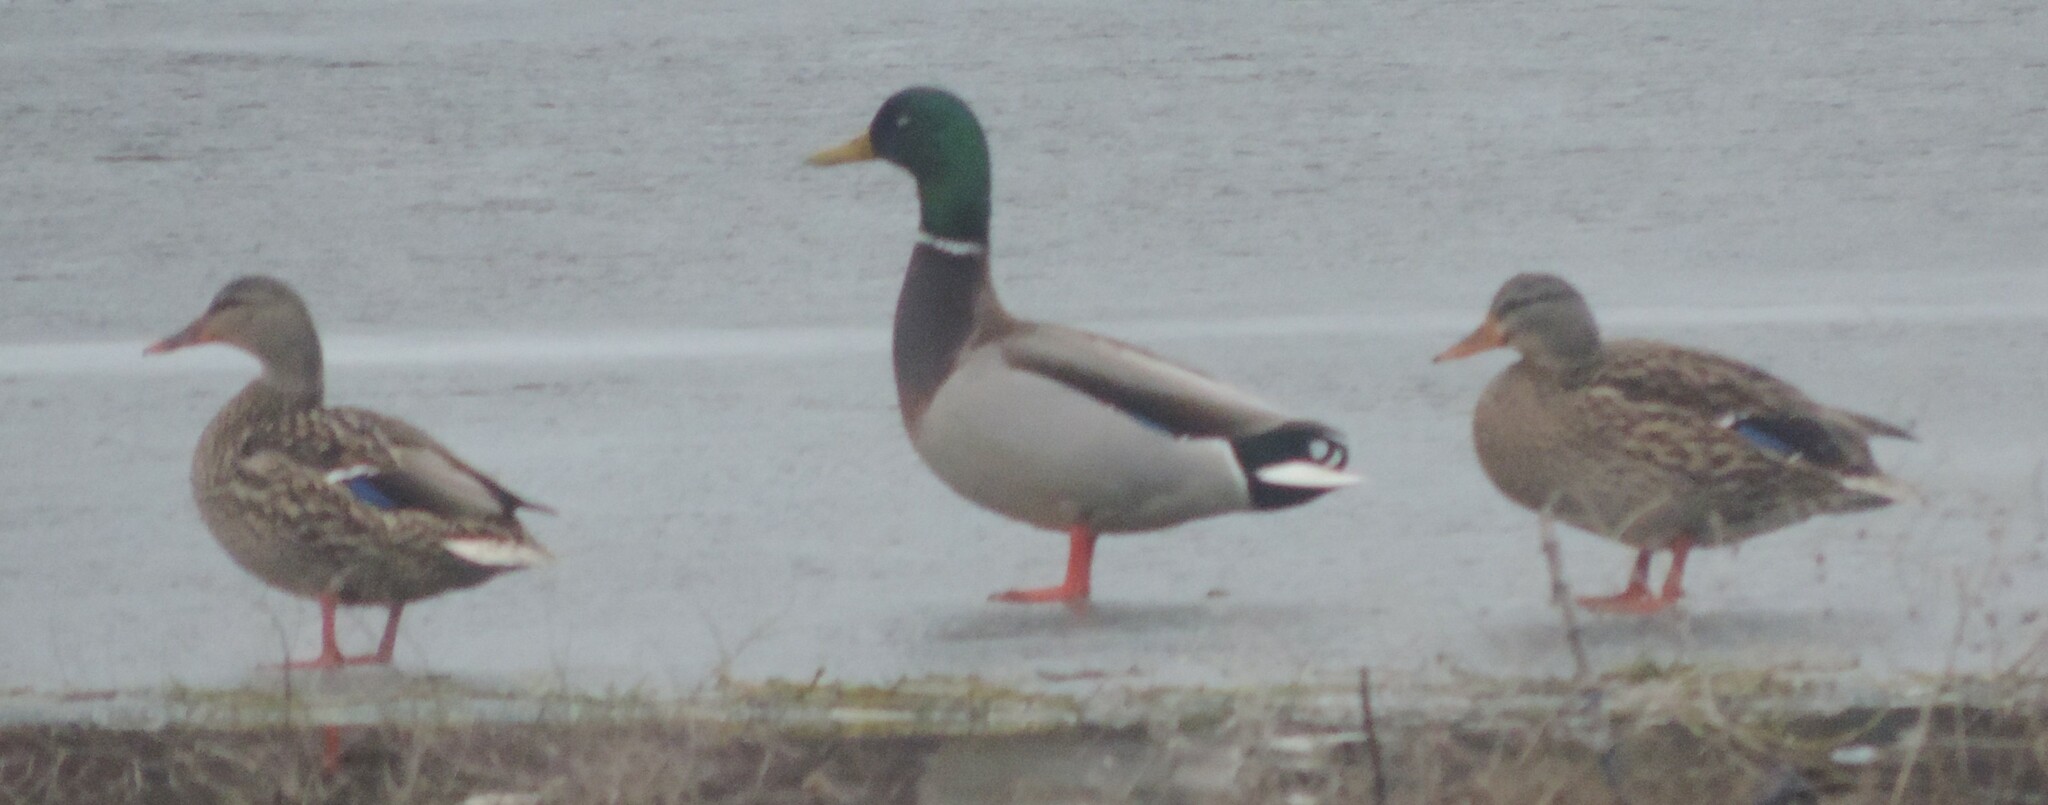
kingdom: Animalia
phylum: Chordata
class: Aves
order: Anseriformes
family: Anatidae
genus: Anas
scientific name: Anas platyrhynchos
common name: Mallard
